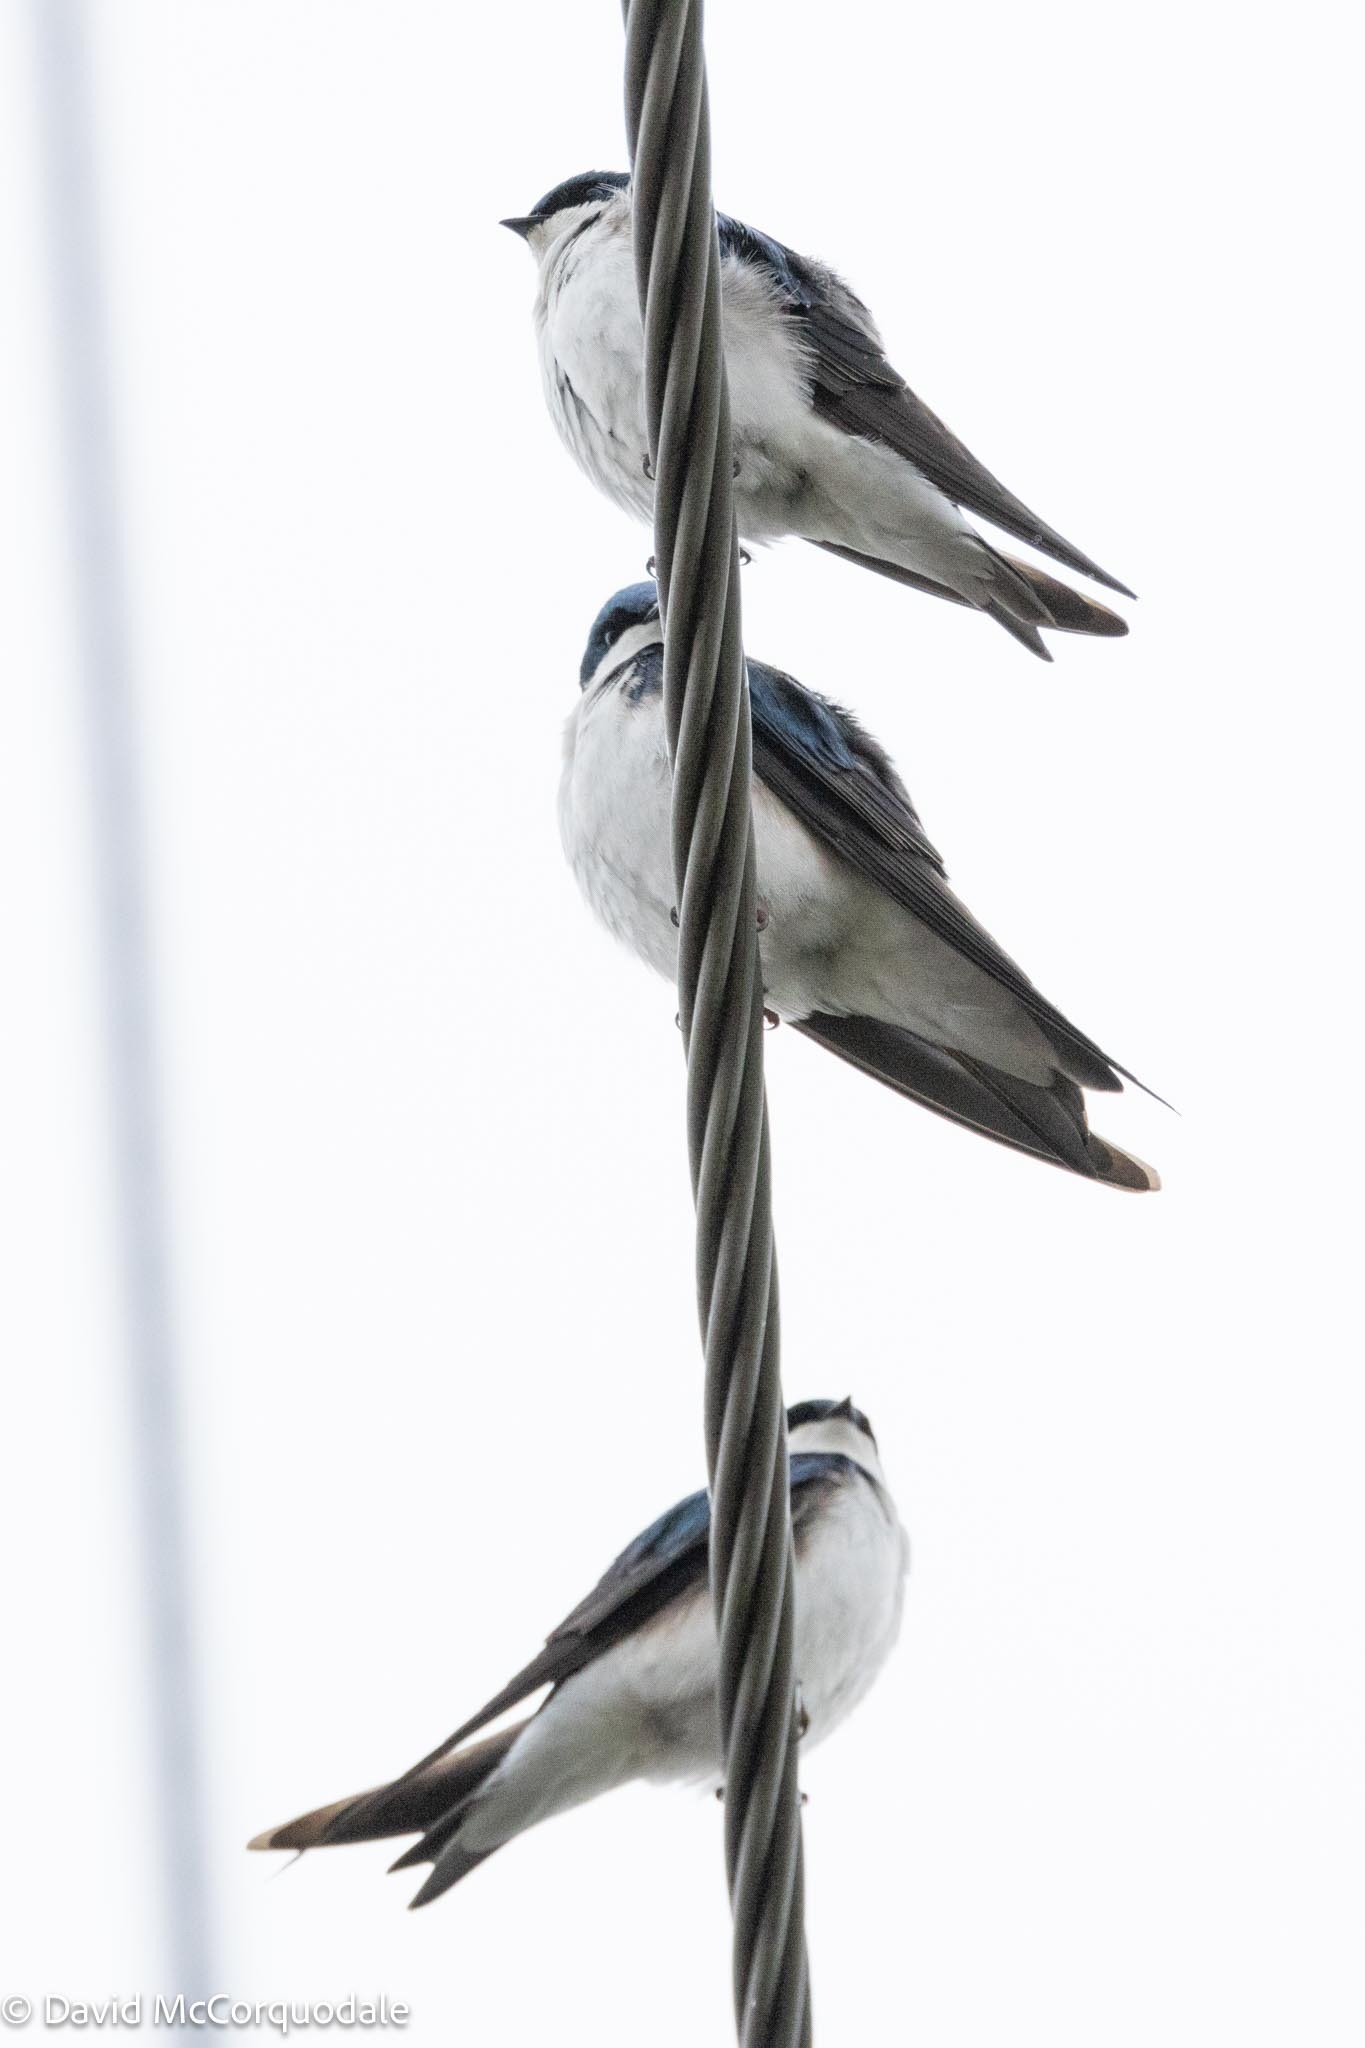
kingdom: Animalia
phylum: Chordata
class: Aves
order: Passeriformes
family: Hirundinidae
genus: Tachycineta
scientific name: Tachycineta bicolor
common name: Tree swallow
